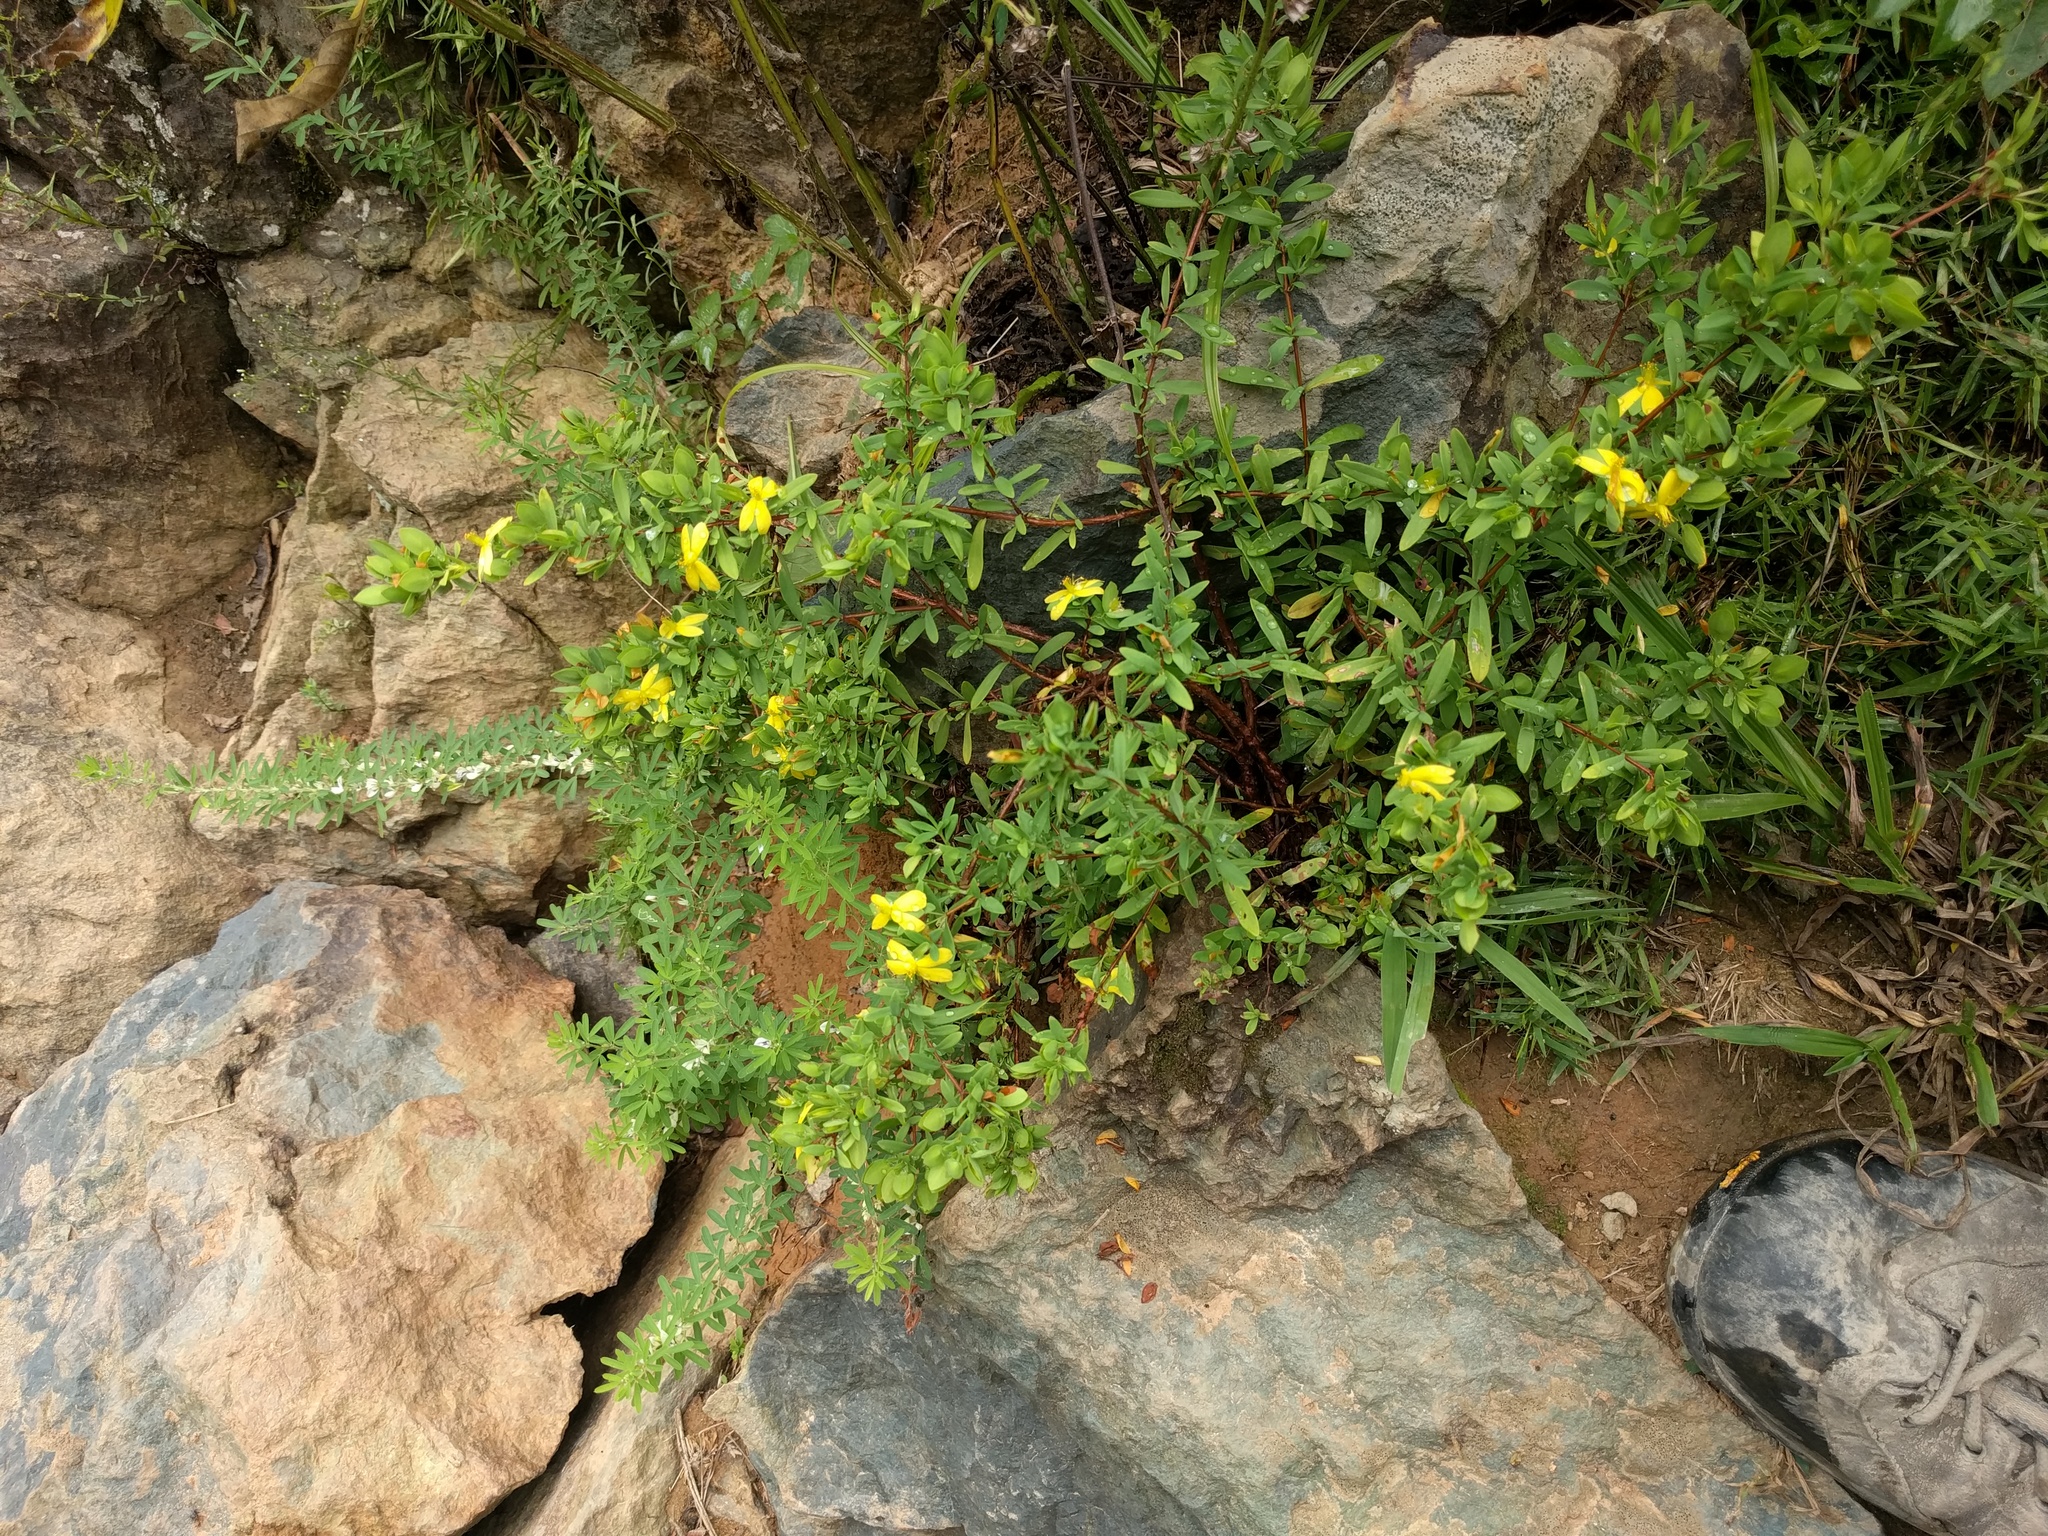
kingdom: Plantae
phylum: Tracheophyta
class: Magnoliopsida
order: Malpighiales
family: Hypericaceae
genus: Hypericum
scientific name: Hypericum hypericoides
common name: St. andrew's cross
